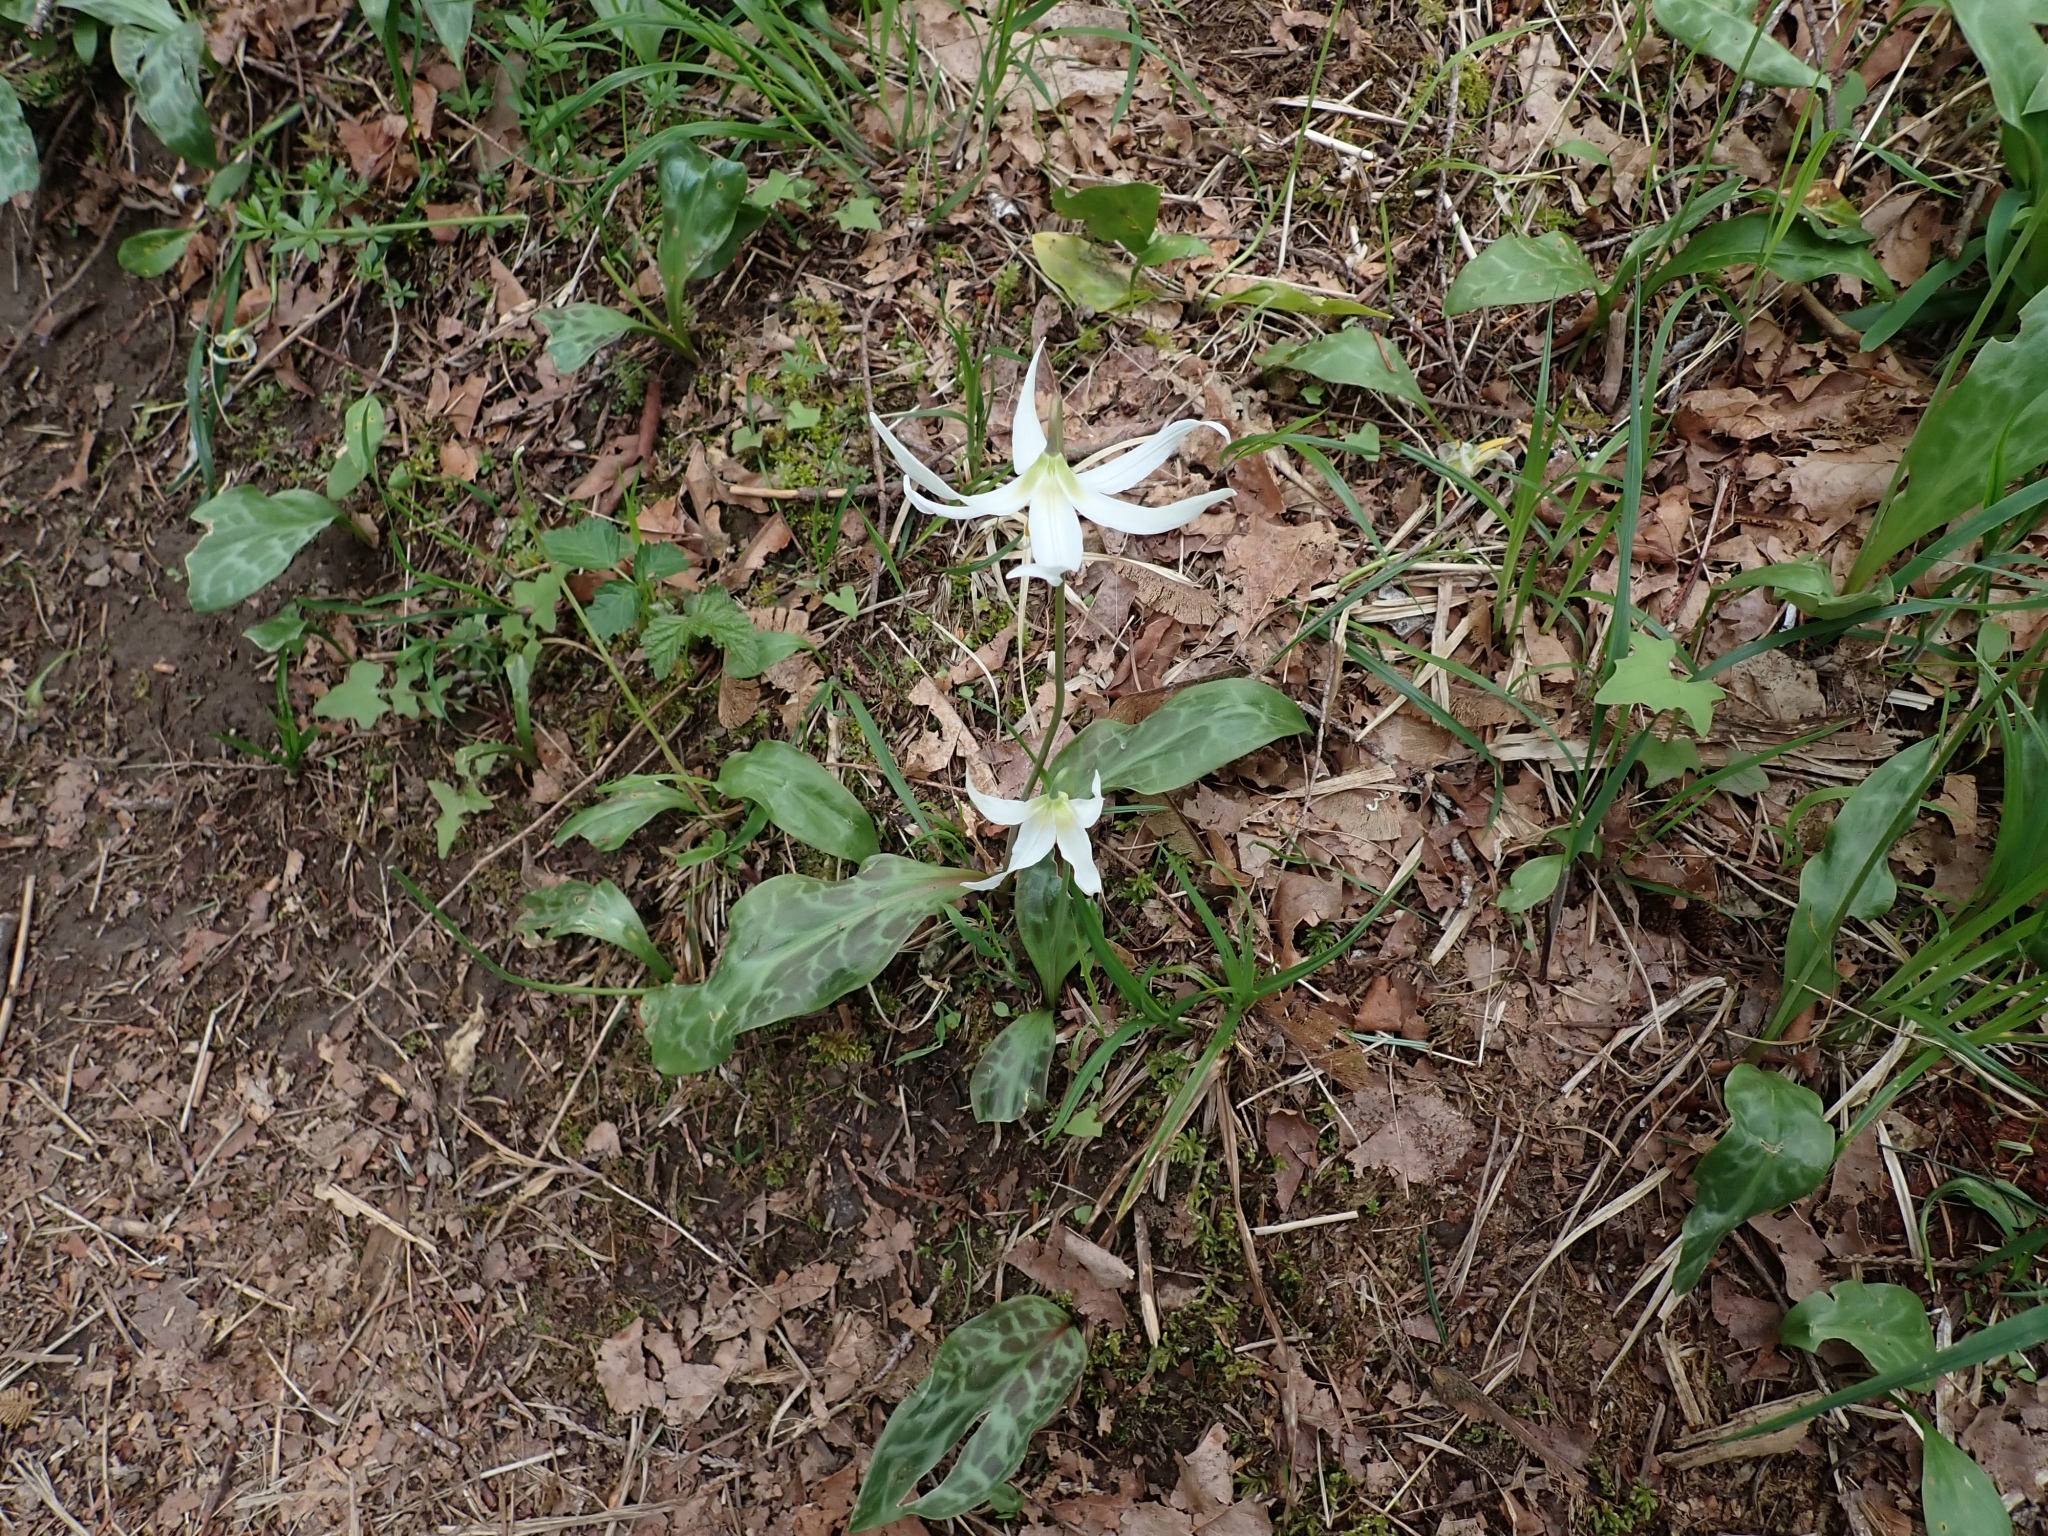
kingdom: Plantae
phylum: Tracheophyta
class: Liliopsida
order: Liliales
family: Liliaceae
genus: Erythronium
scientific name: Erythronium oregonum
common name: Giant adder's-tongue
